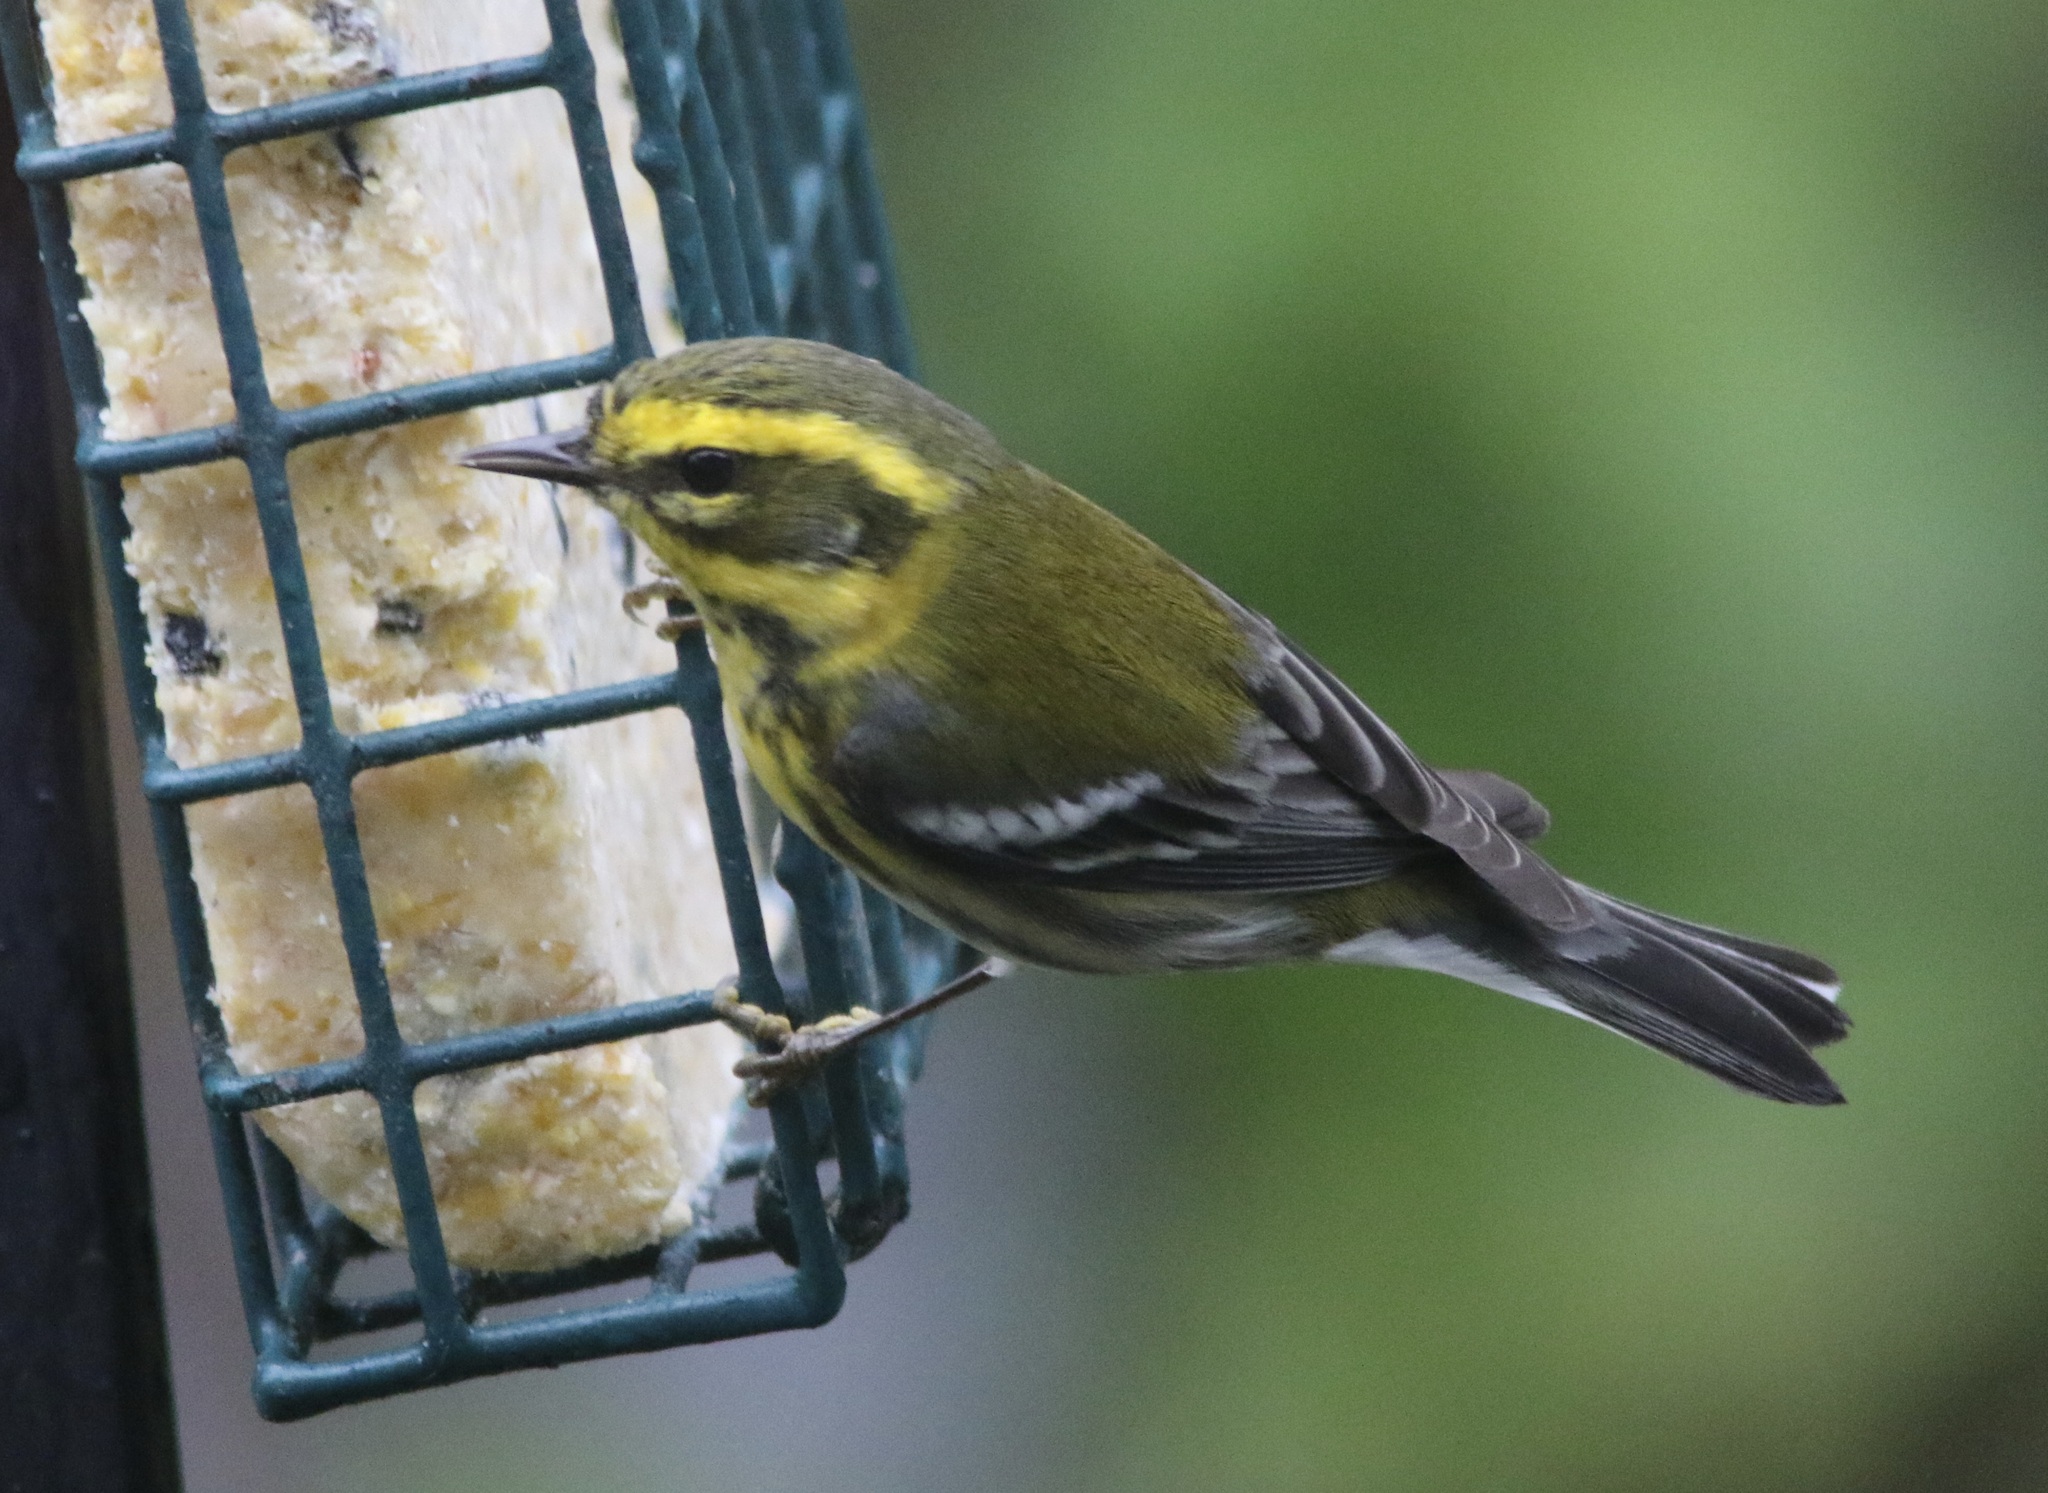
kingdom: Animalia
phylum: Chordata
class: Aves
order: Passeriformes
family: Parulidae
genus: Setophaga
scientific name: Setophaga townsendi
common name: Townsend's warbler
